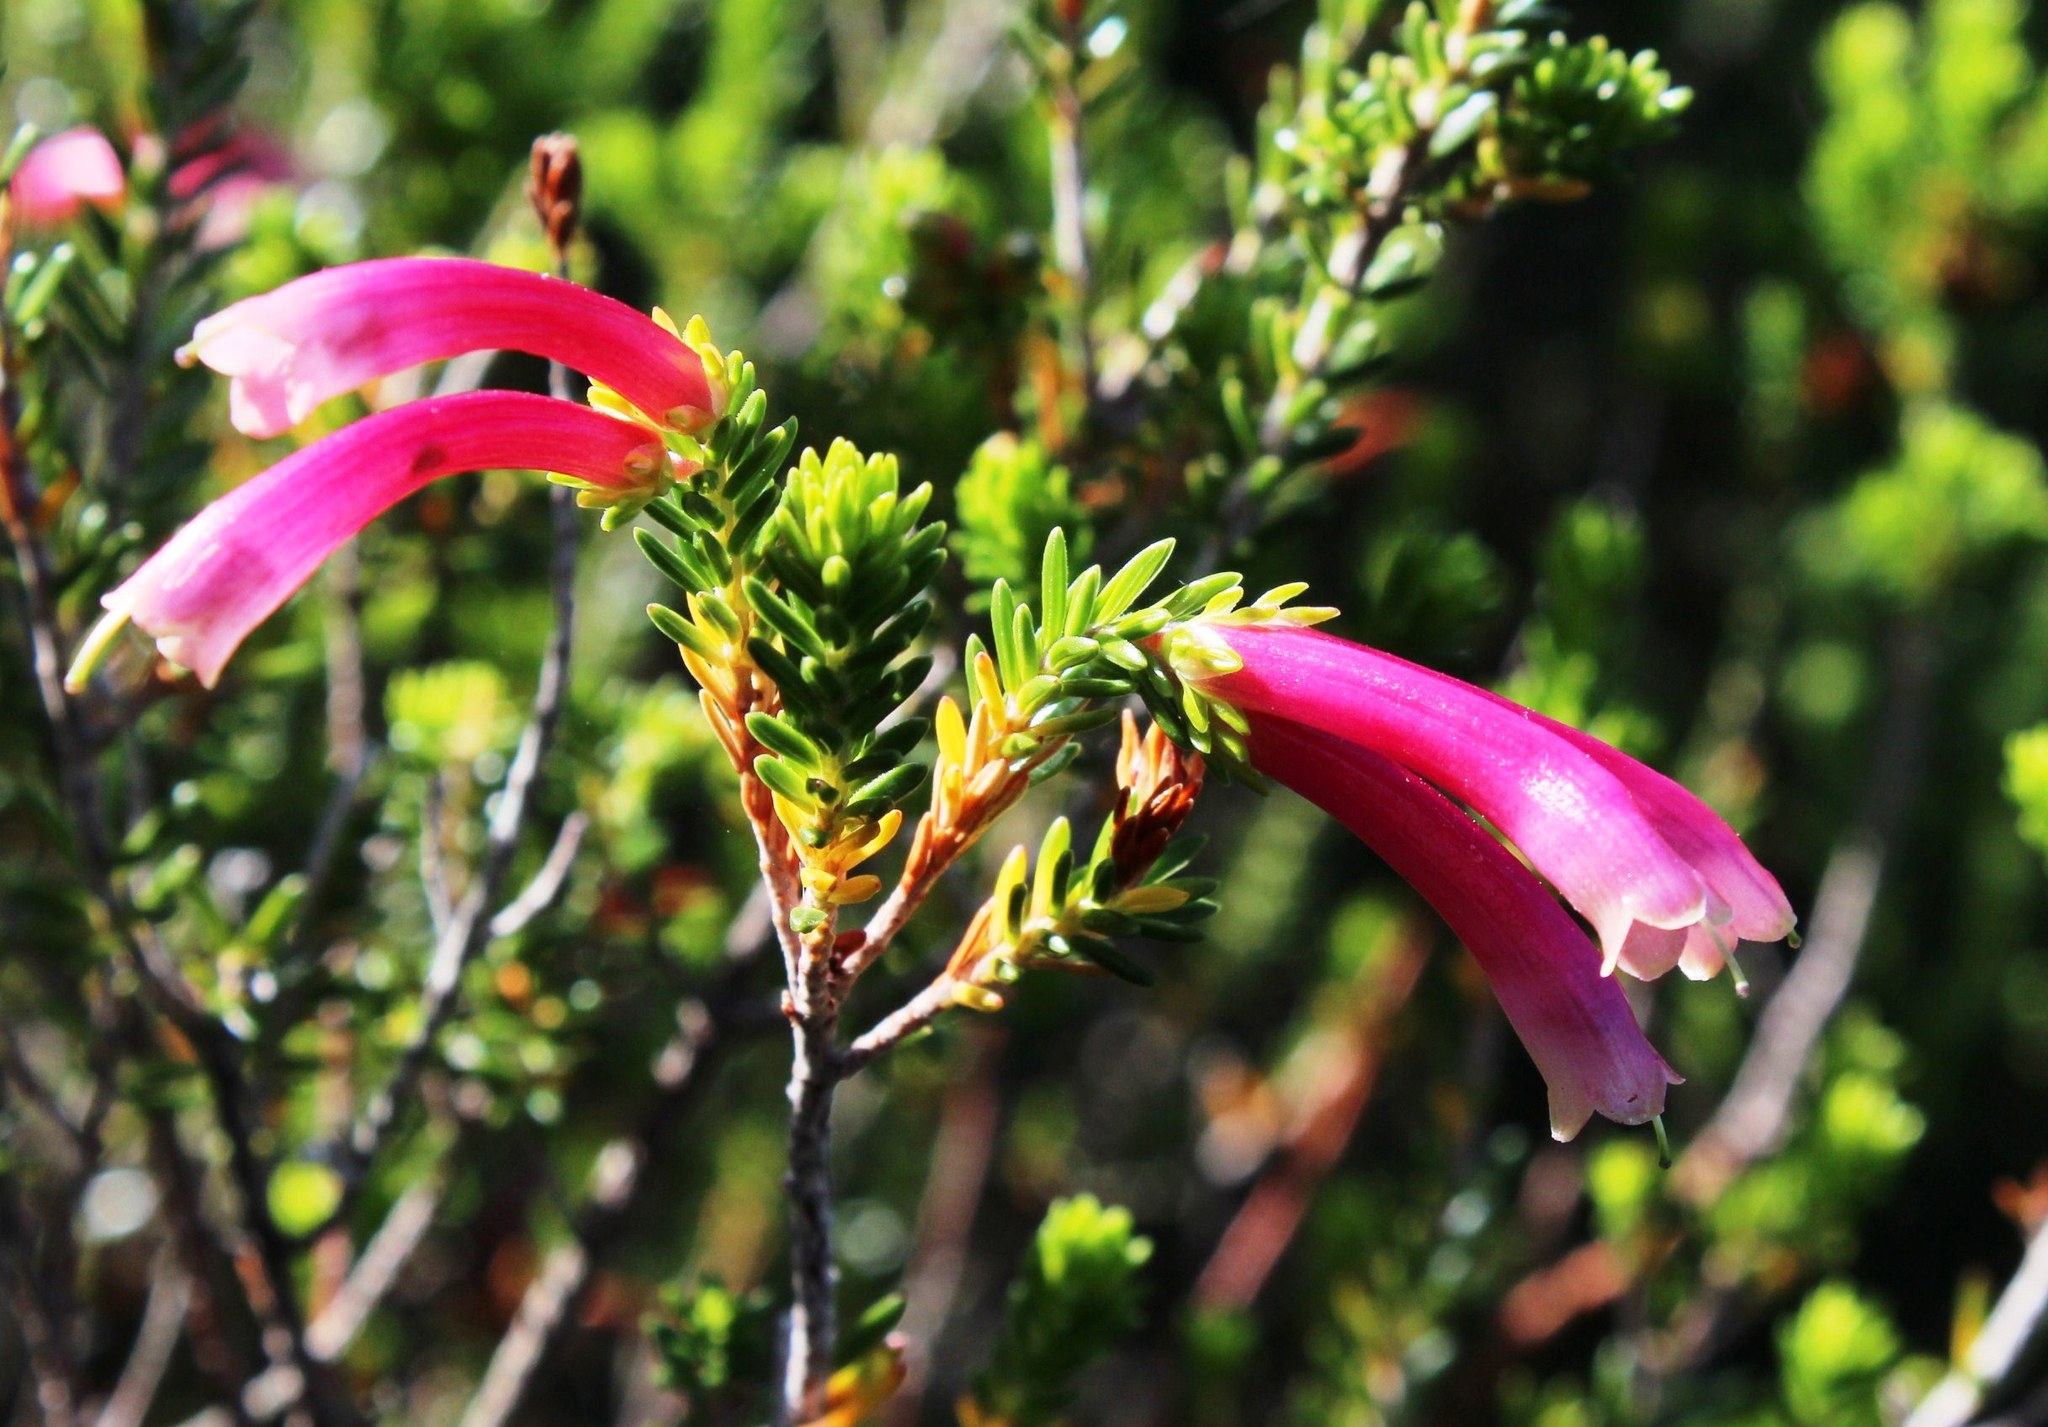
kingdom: Plantae
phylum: Tracheophyta
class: Magnoliopsida
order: Ericales
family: Ericaceae
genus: Erica
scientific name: Erica discolor
